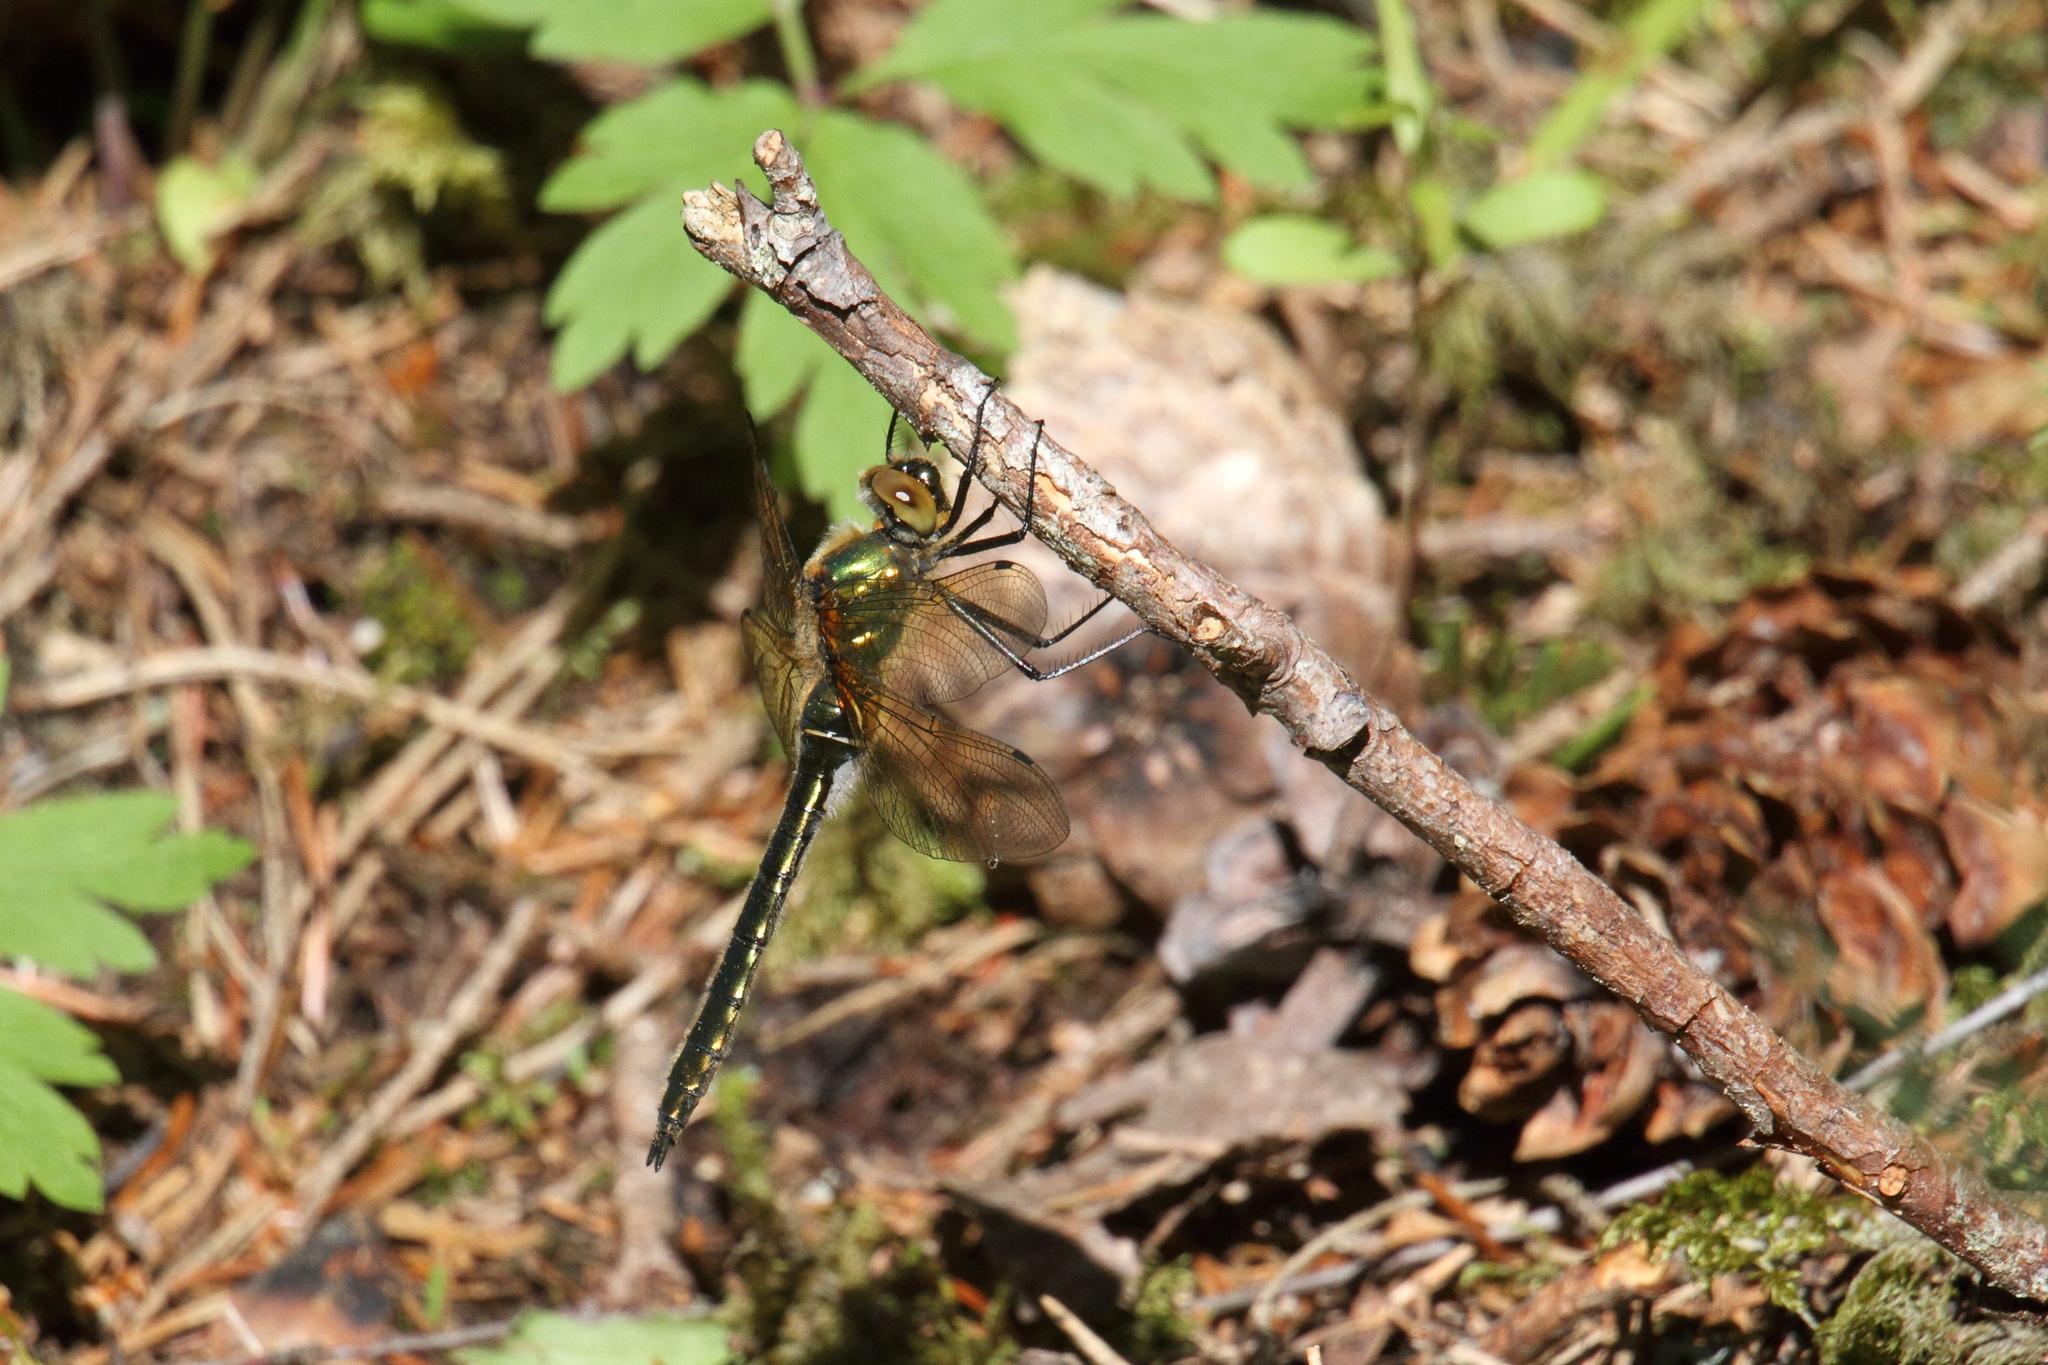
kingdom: Animalia
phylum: Arthropoda
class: Insecta
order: Odonata
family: Corduliidae
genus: Cordulia
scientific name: Cordulia aenea
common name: Downy emerald
